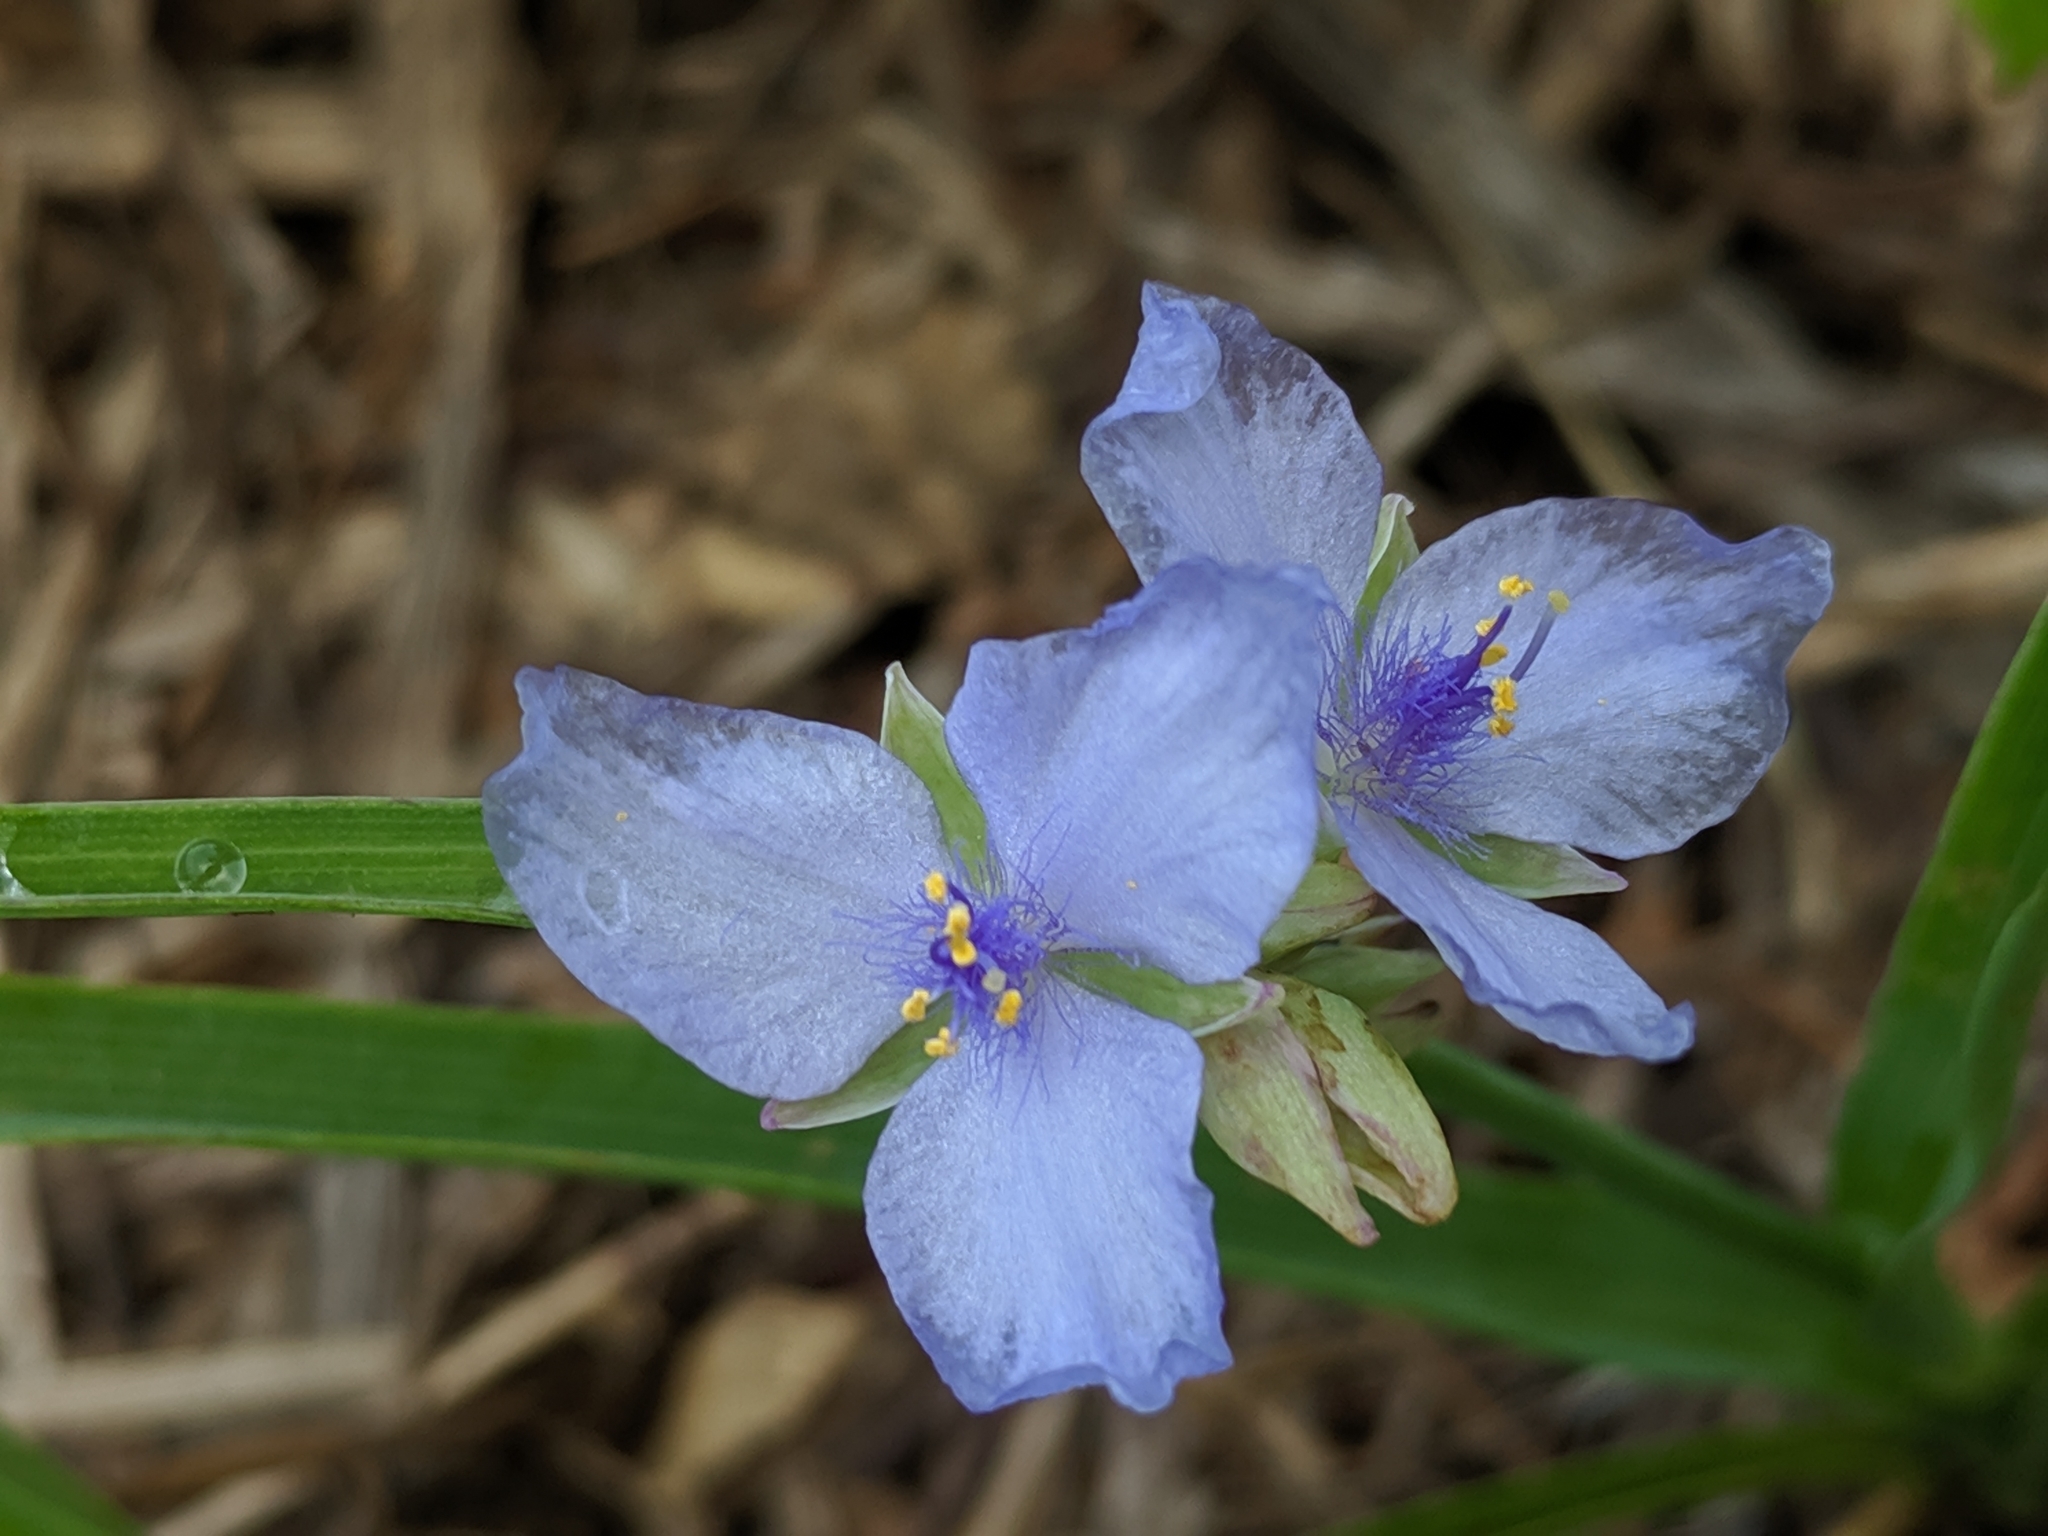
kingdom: Plantae
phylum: Tracheophyta
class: Liliopsida
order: Commelinales
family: Commelinaceae
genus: Tradescantia
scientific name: Tradescantia ohiensis
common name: Ohio spiderwort
